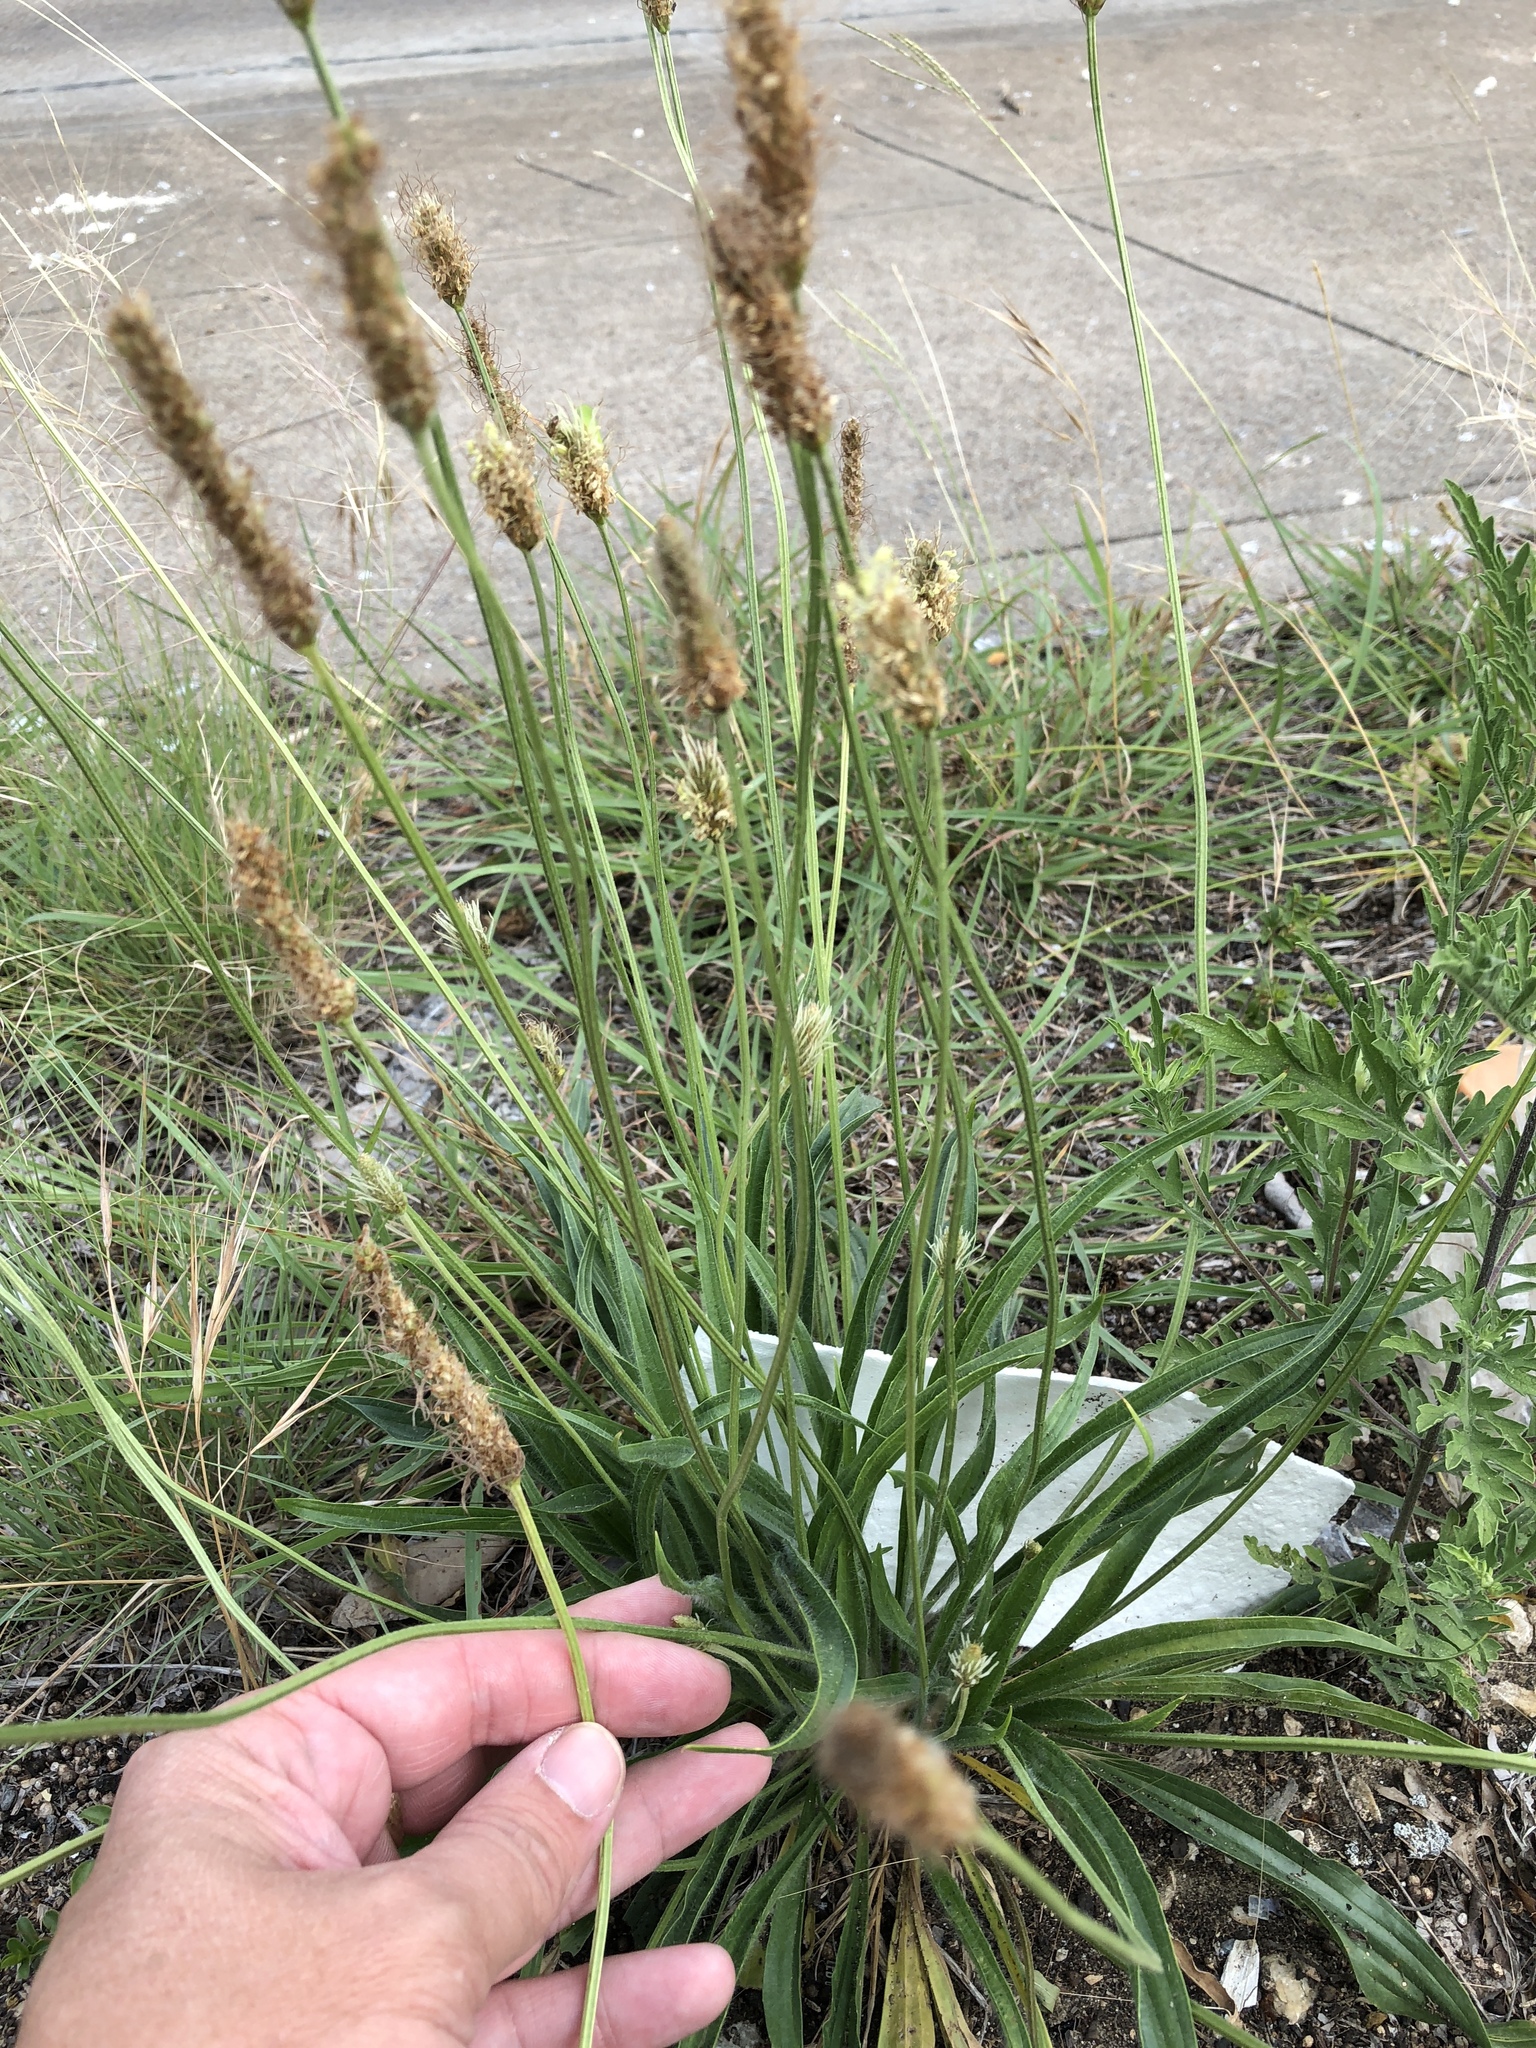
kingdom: Plantae
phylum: Tracheophyta
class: Magnoliopsida
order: Lamiales
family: Plantaginaceae
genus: Plantago
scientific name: Plantago lanceolata
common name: Ribwort plantain
